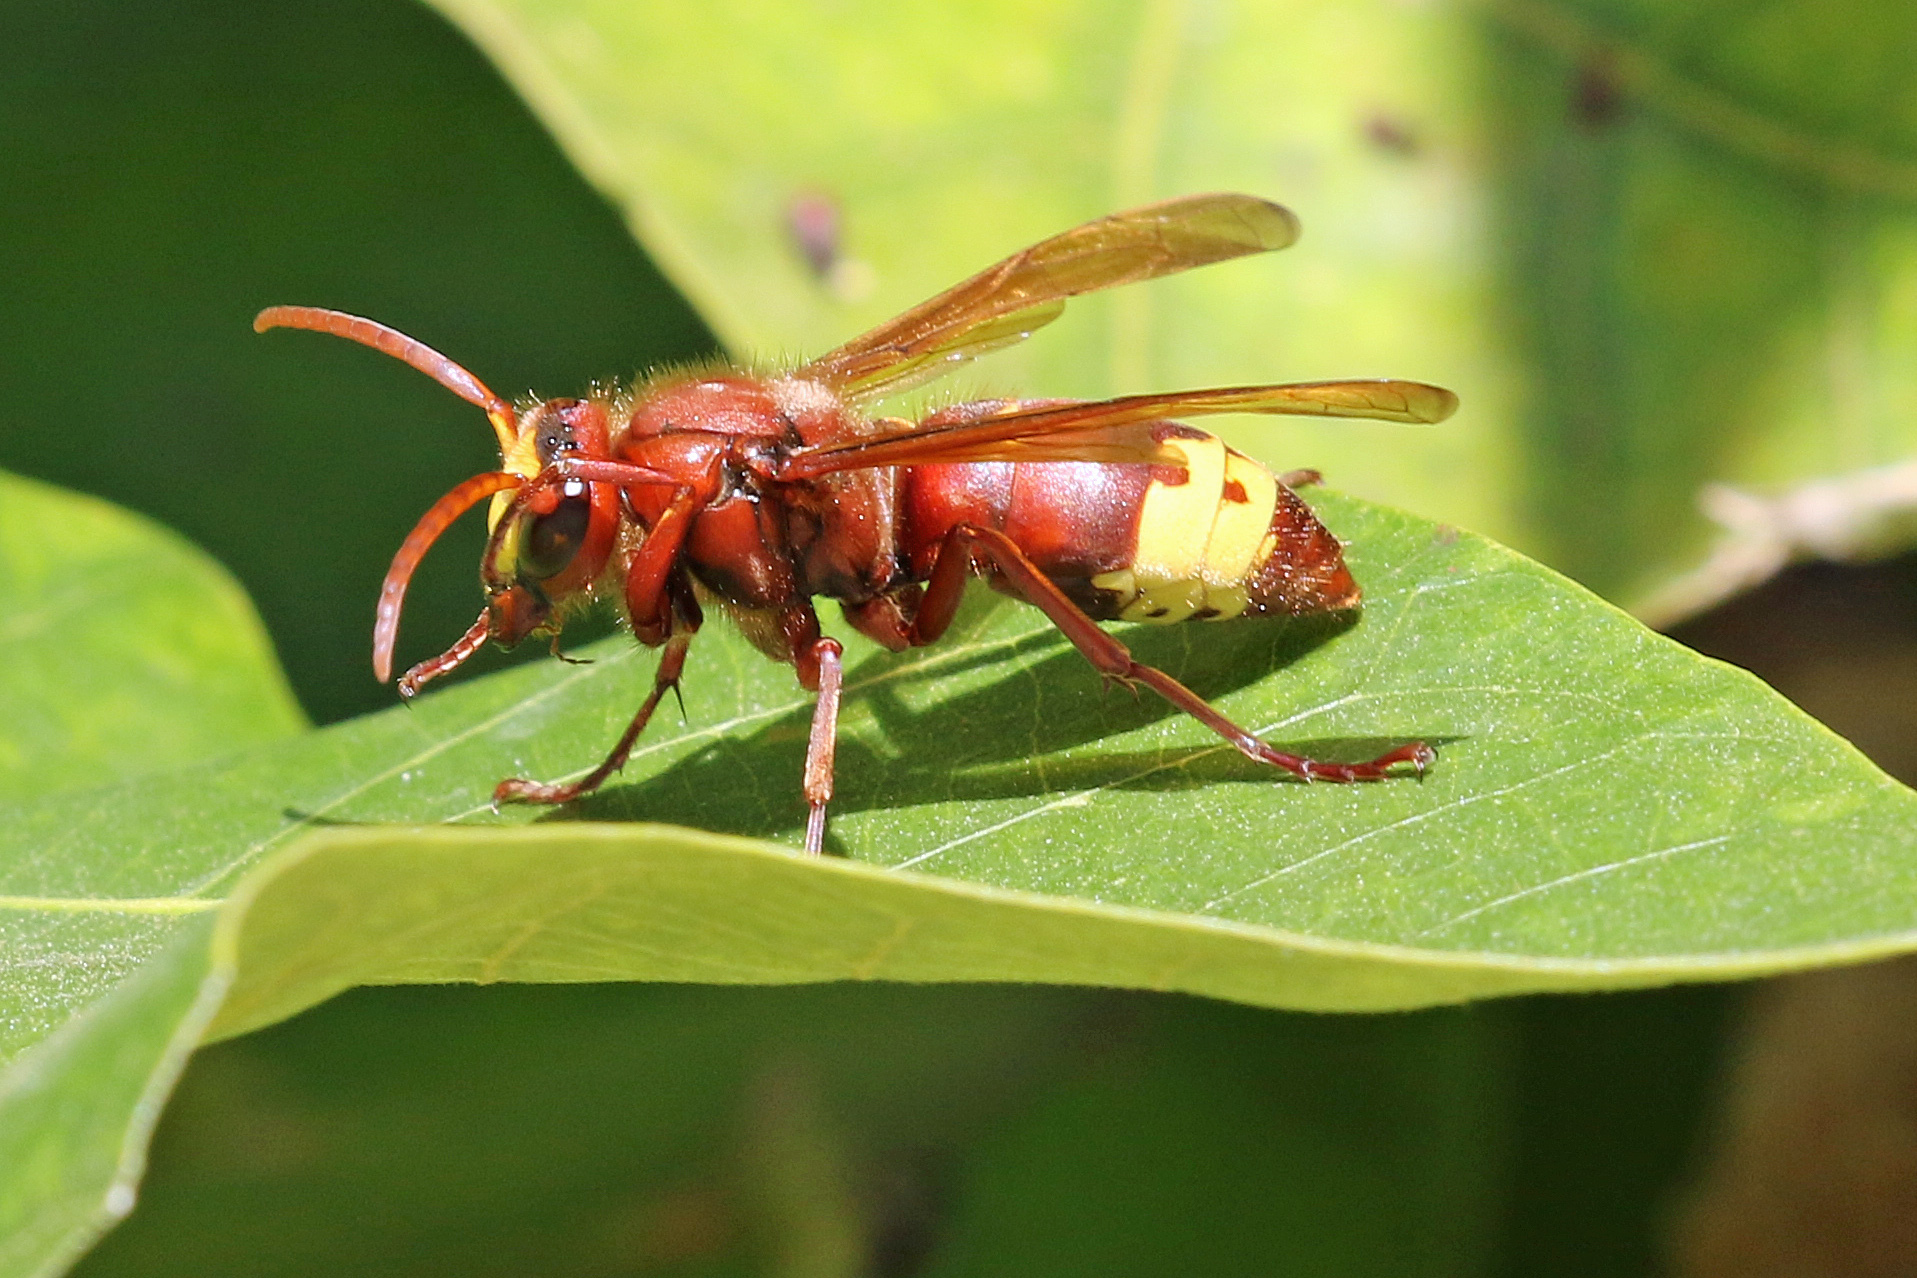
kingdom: Animalia
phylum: Arthropoda
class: Insecta
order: Hymenoptera
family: Vespidae
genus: Vespa
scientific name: Vespa orientalis
